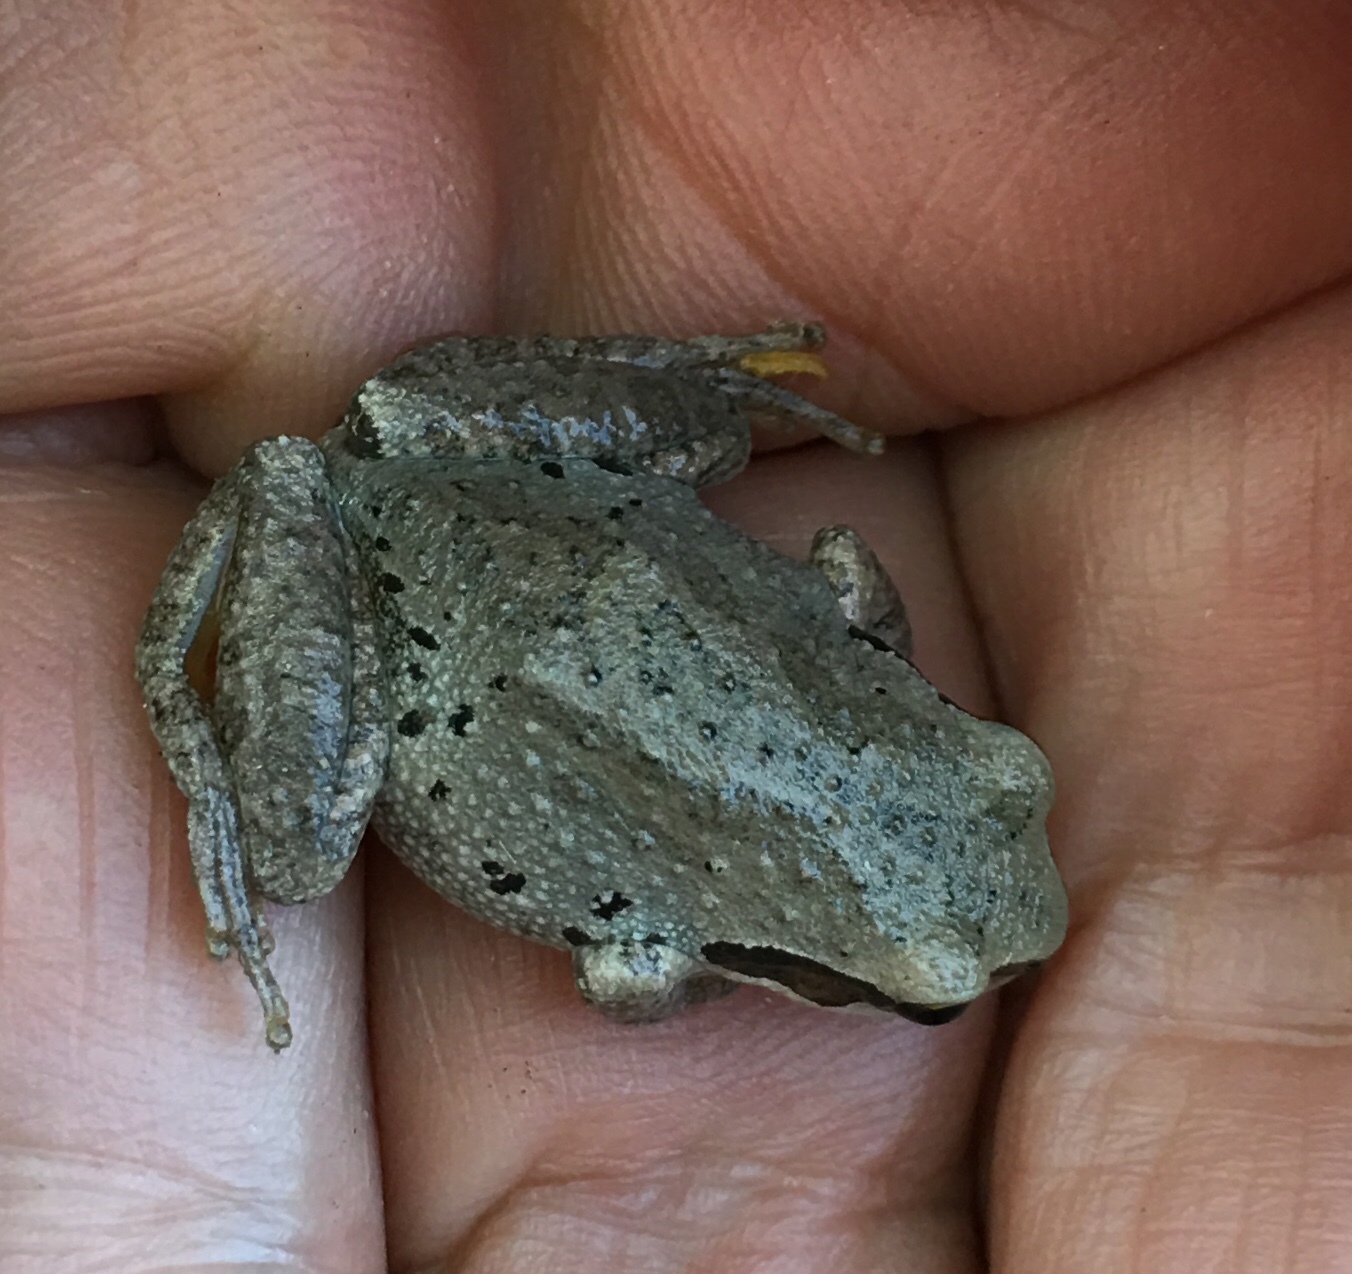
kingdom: Animalia
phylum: Chordata
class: Amphibia
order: Anura
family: Hylidae
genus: Pseudacris
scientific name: Pseudacris regilla
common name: Pacific chorus frog
